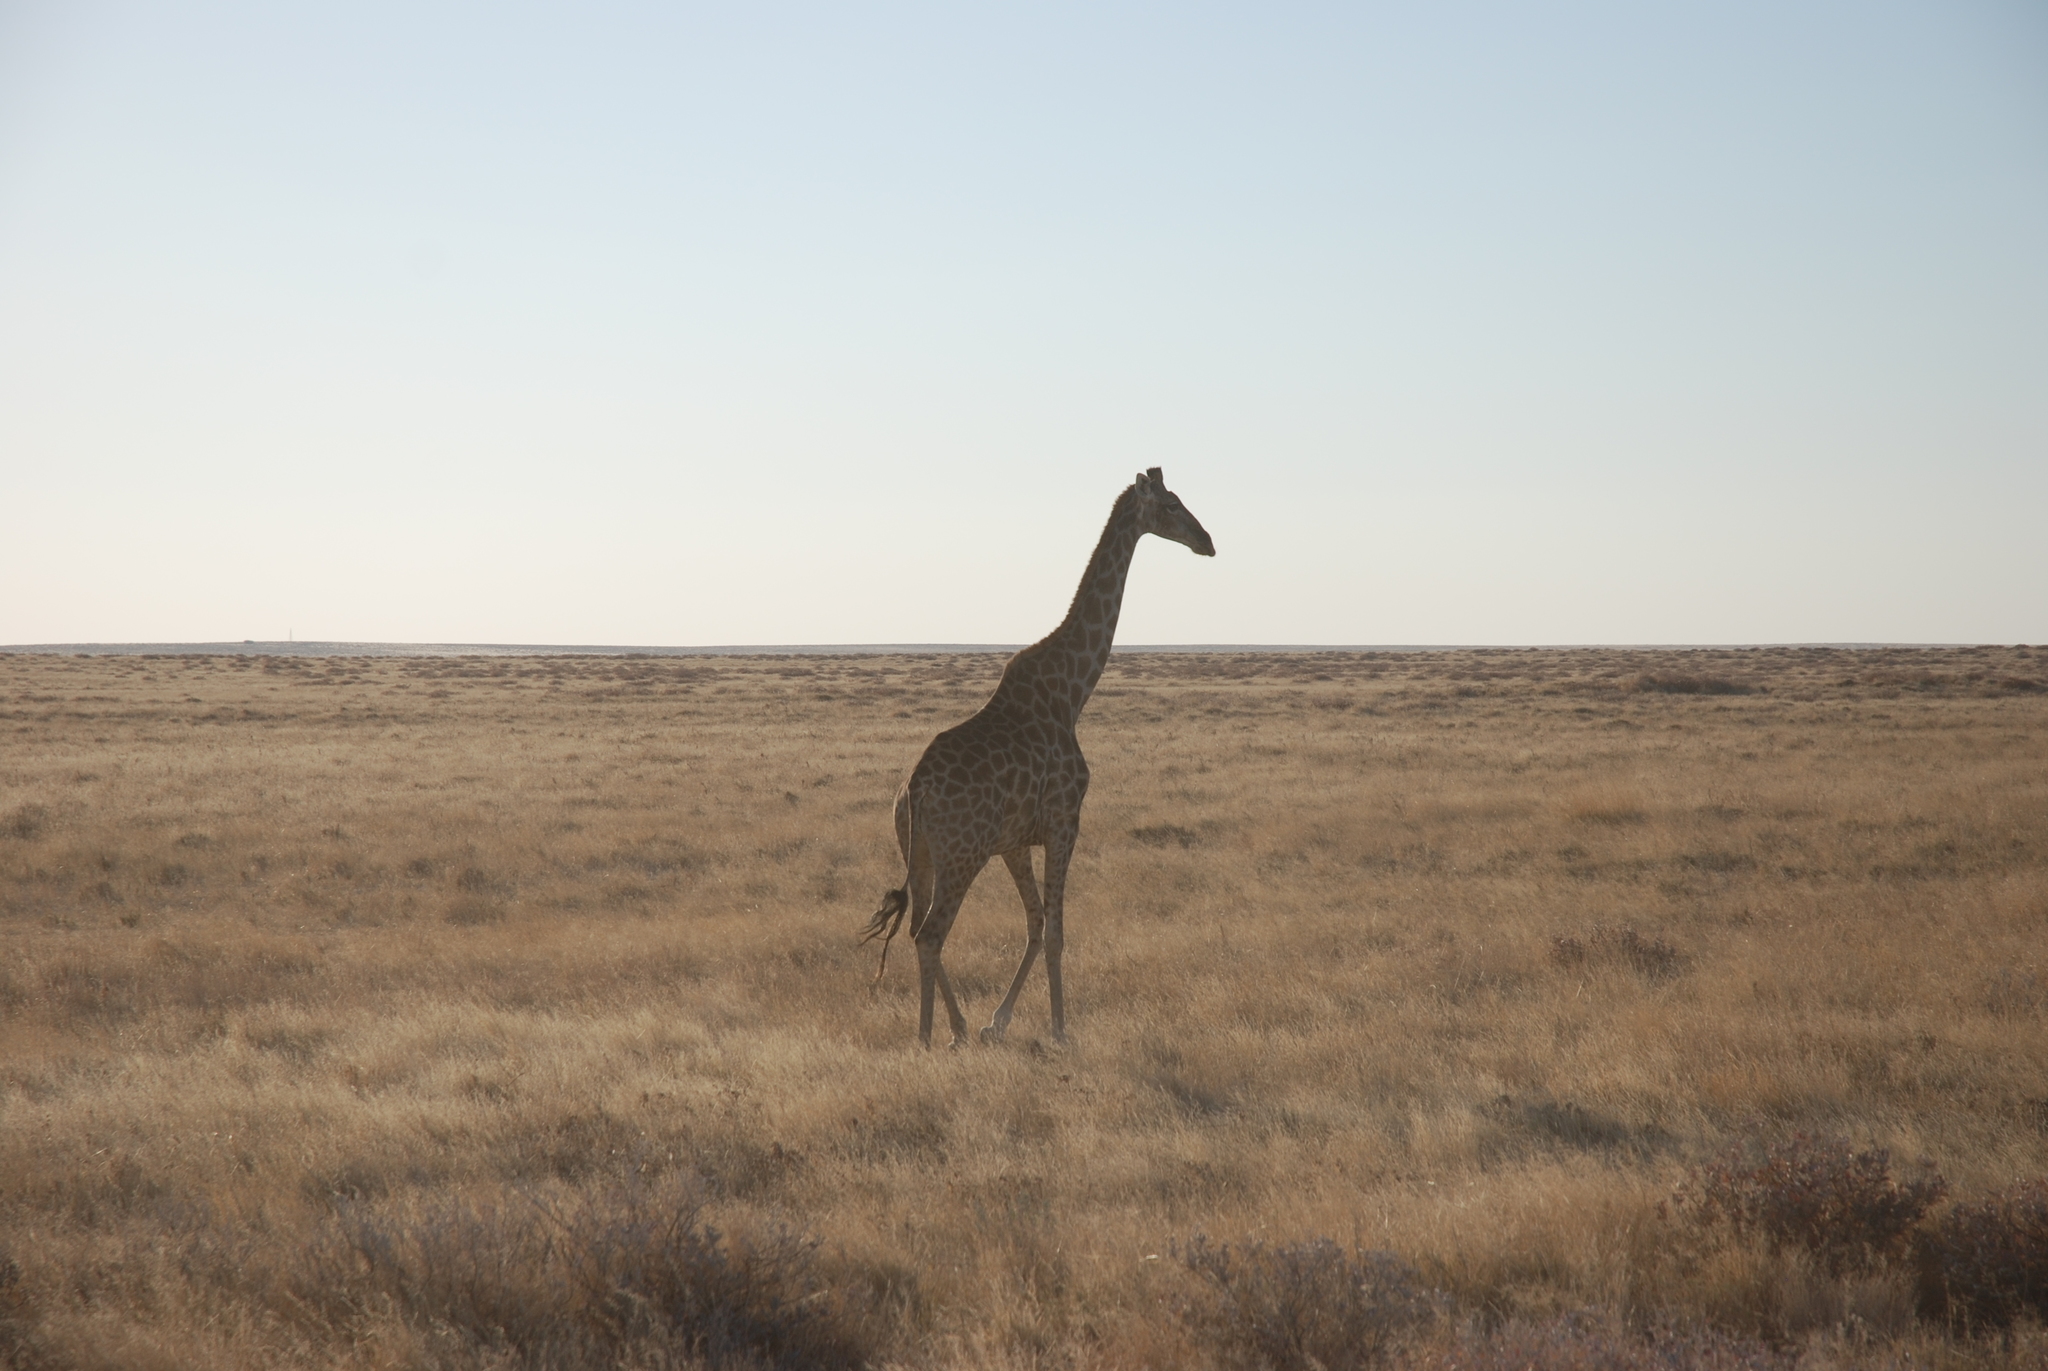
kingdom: Animalia
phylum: Chordata
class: Mammalia
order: Artiodactyla
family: Giraffidae
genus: Giraffa
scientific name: Giraffa giraffa
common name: Southern giraffe
